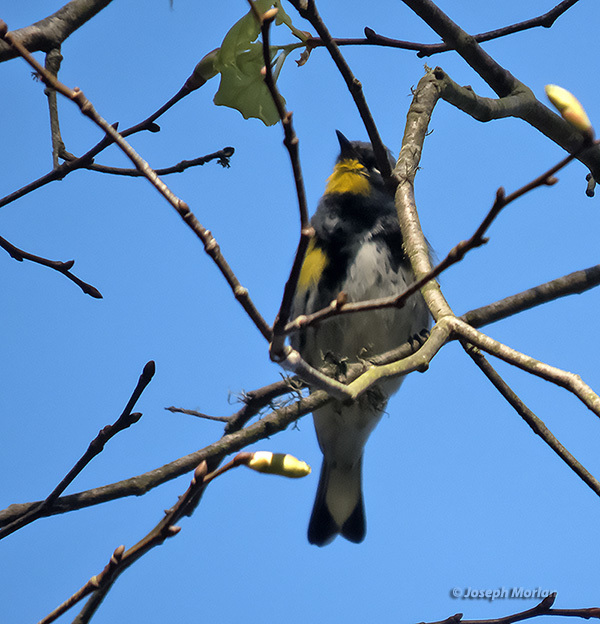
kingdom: Animalia
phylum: Chordata
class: Aves
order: Passeriformes
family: Parulidae
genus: Setophaga
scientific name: Setophaga coronata
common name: Myrtle warbler
